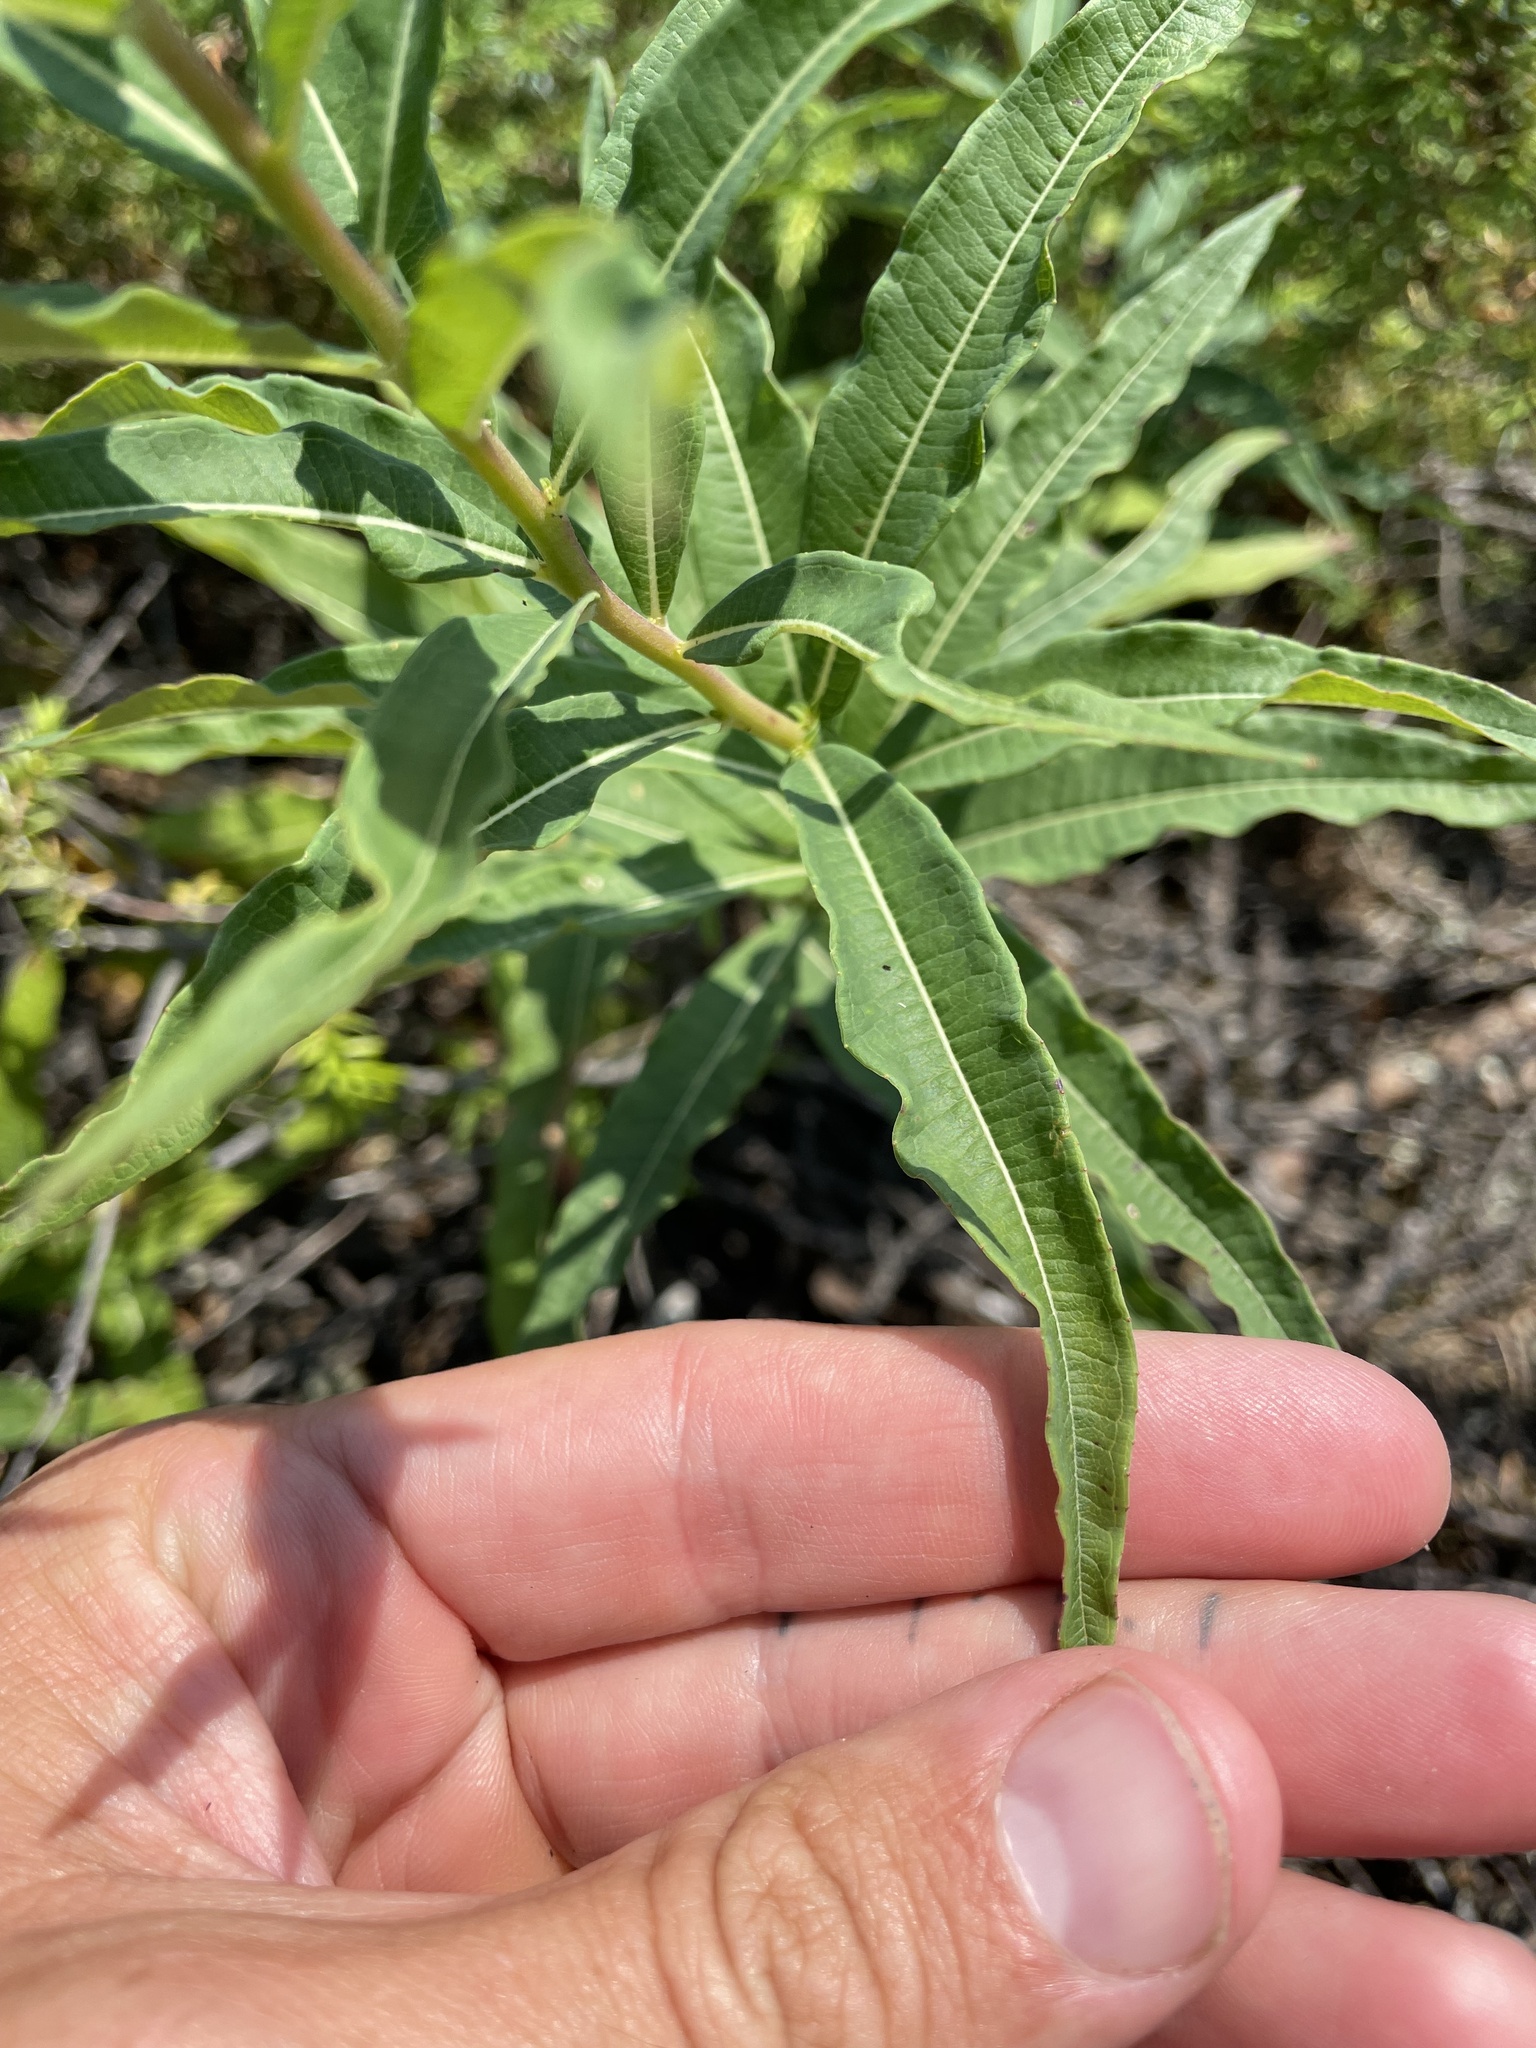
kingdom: Plantae
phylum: Tracheophyta
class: Magnoliopsida
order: Myrtales
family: Onagraceae
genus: Chamaenerion
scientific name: Chamaenerion angustifolium
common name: Fireweed
